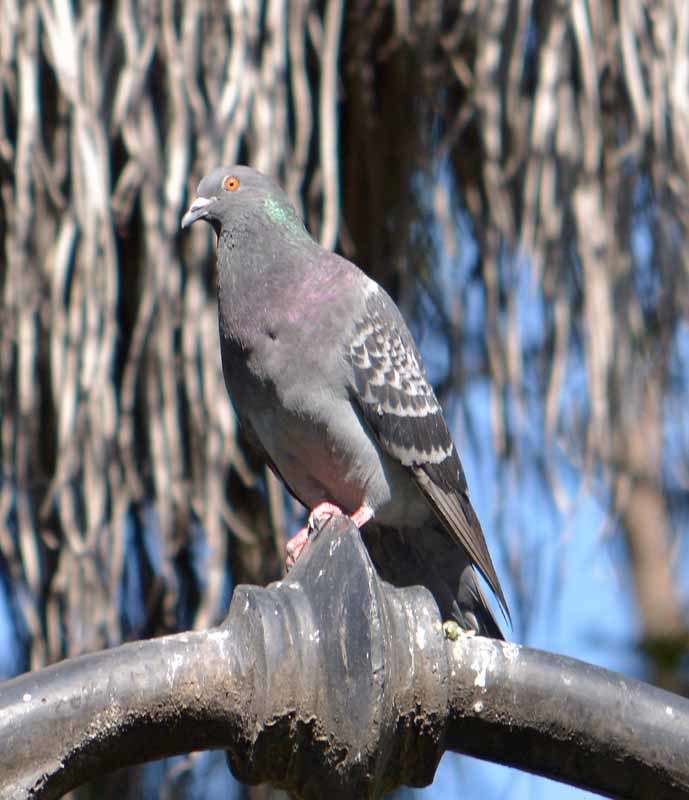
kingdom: Animalia
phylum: Chordata
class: Aves
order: Columbiformes
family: Columbidae
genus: Columba
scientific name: Columba livia
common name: Rock pigeon
